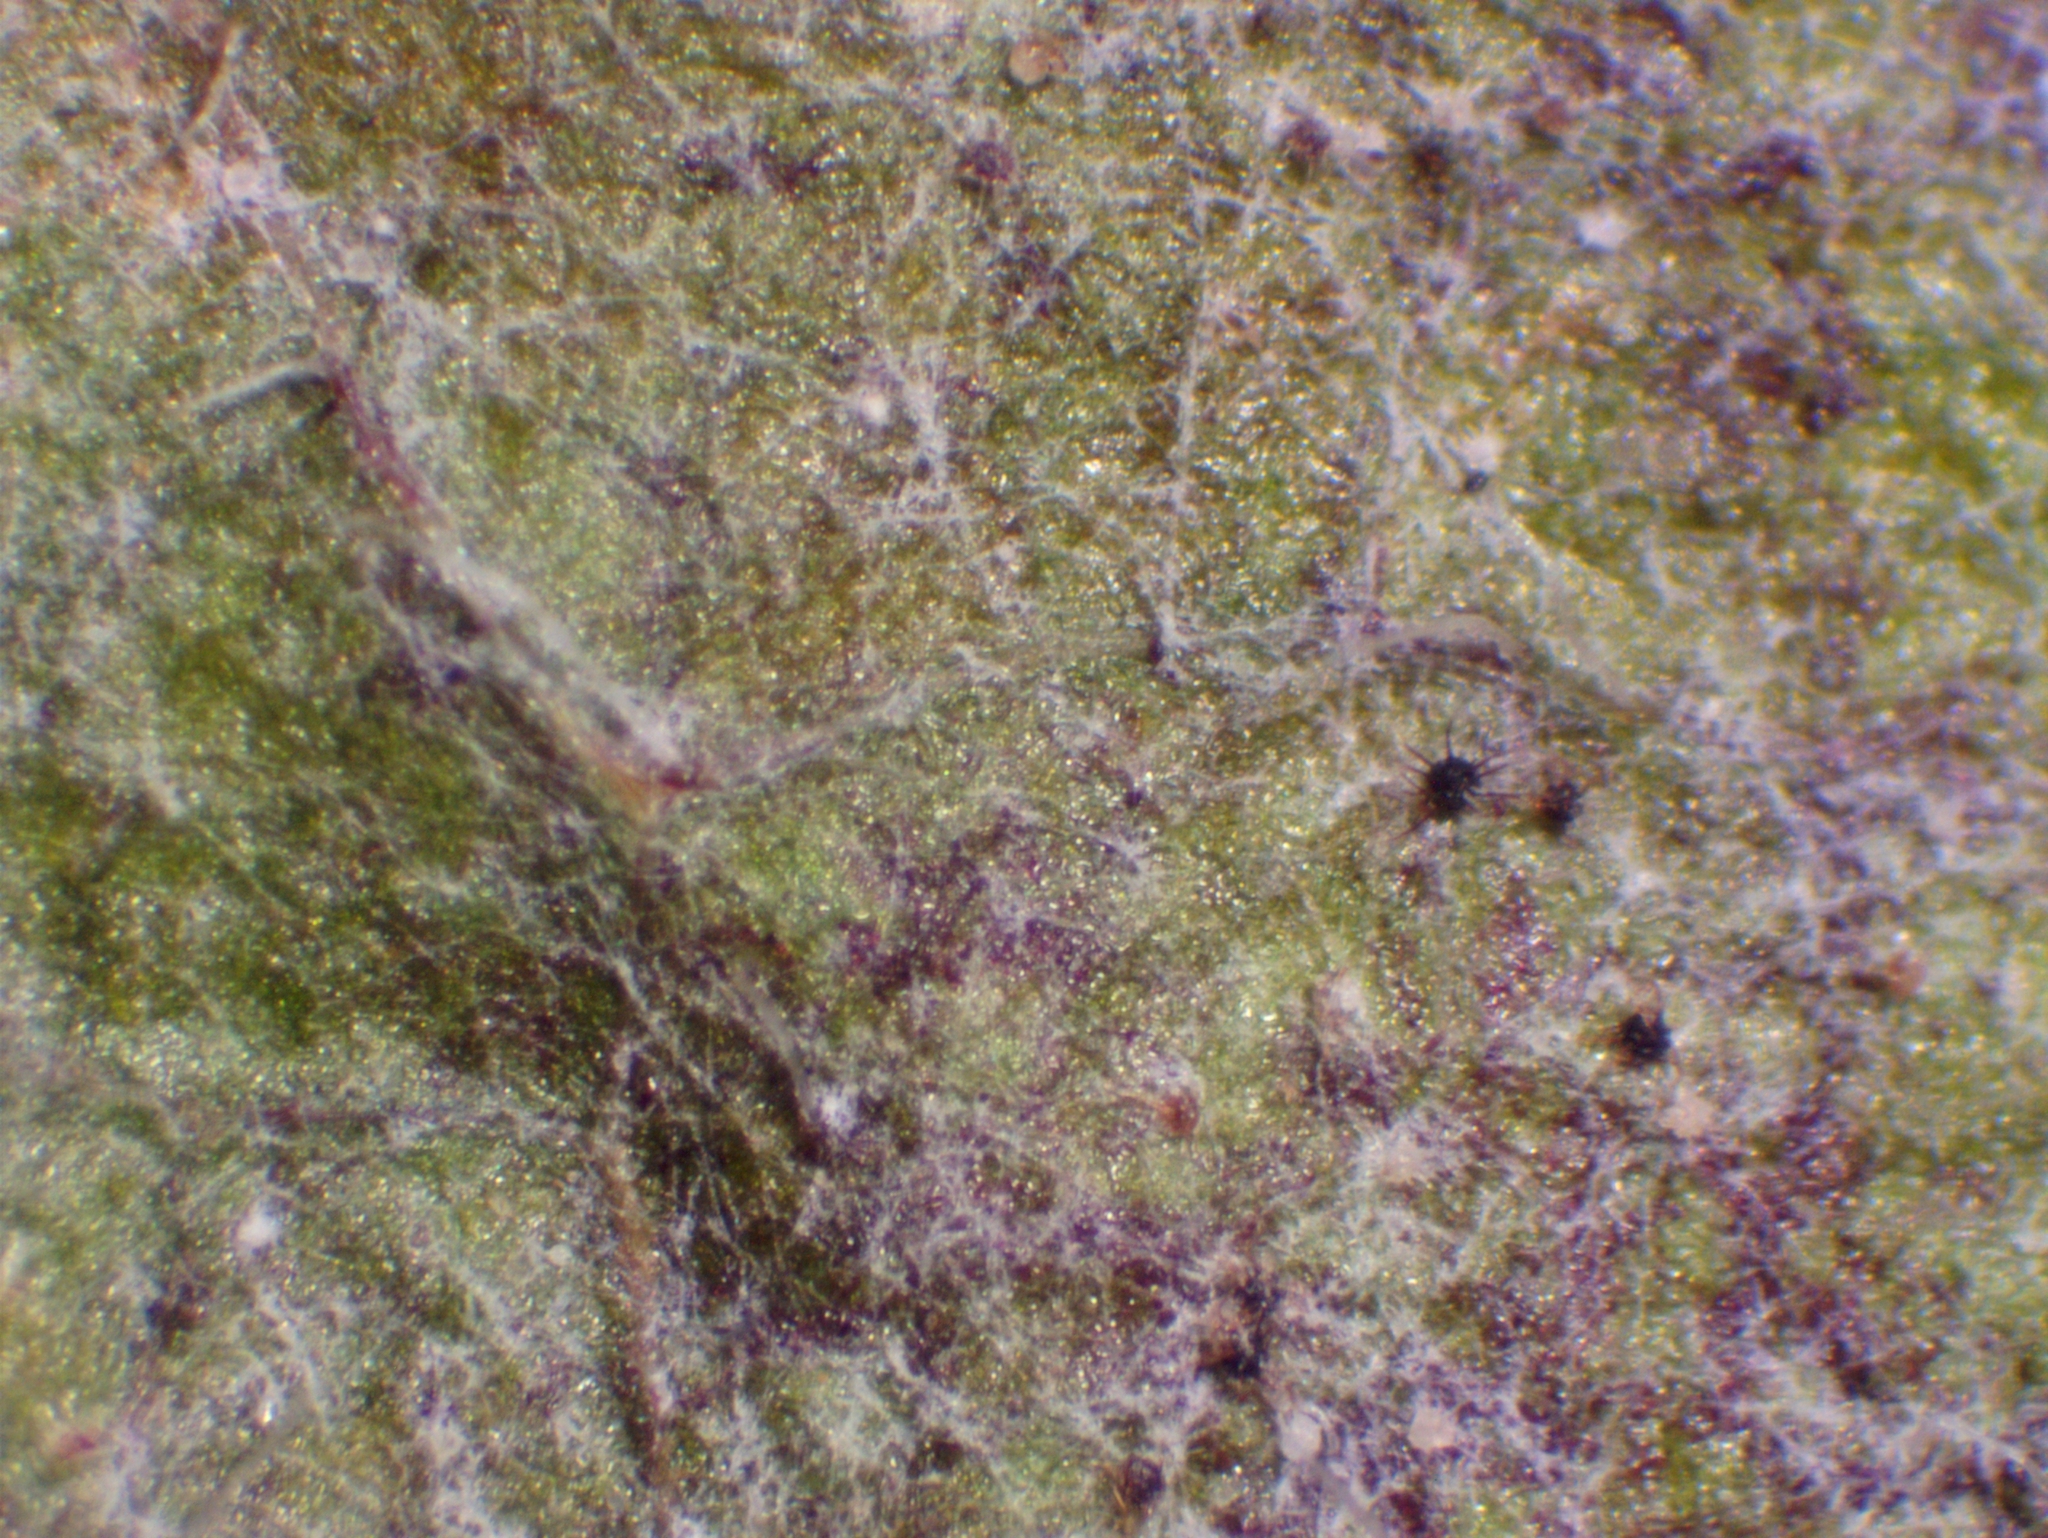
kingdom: Fungi
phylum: Ascomycota
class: Leotiomycetes
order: Helotiales
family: Erysiphaceae
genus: Podosphaera
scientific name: Podosphaera clandestina
